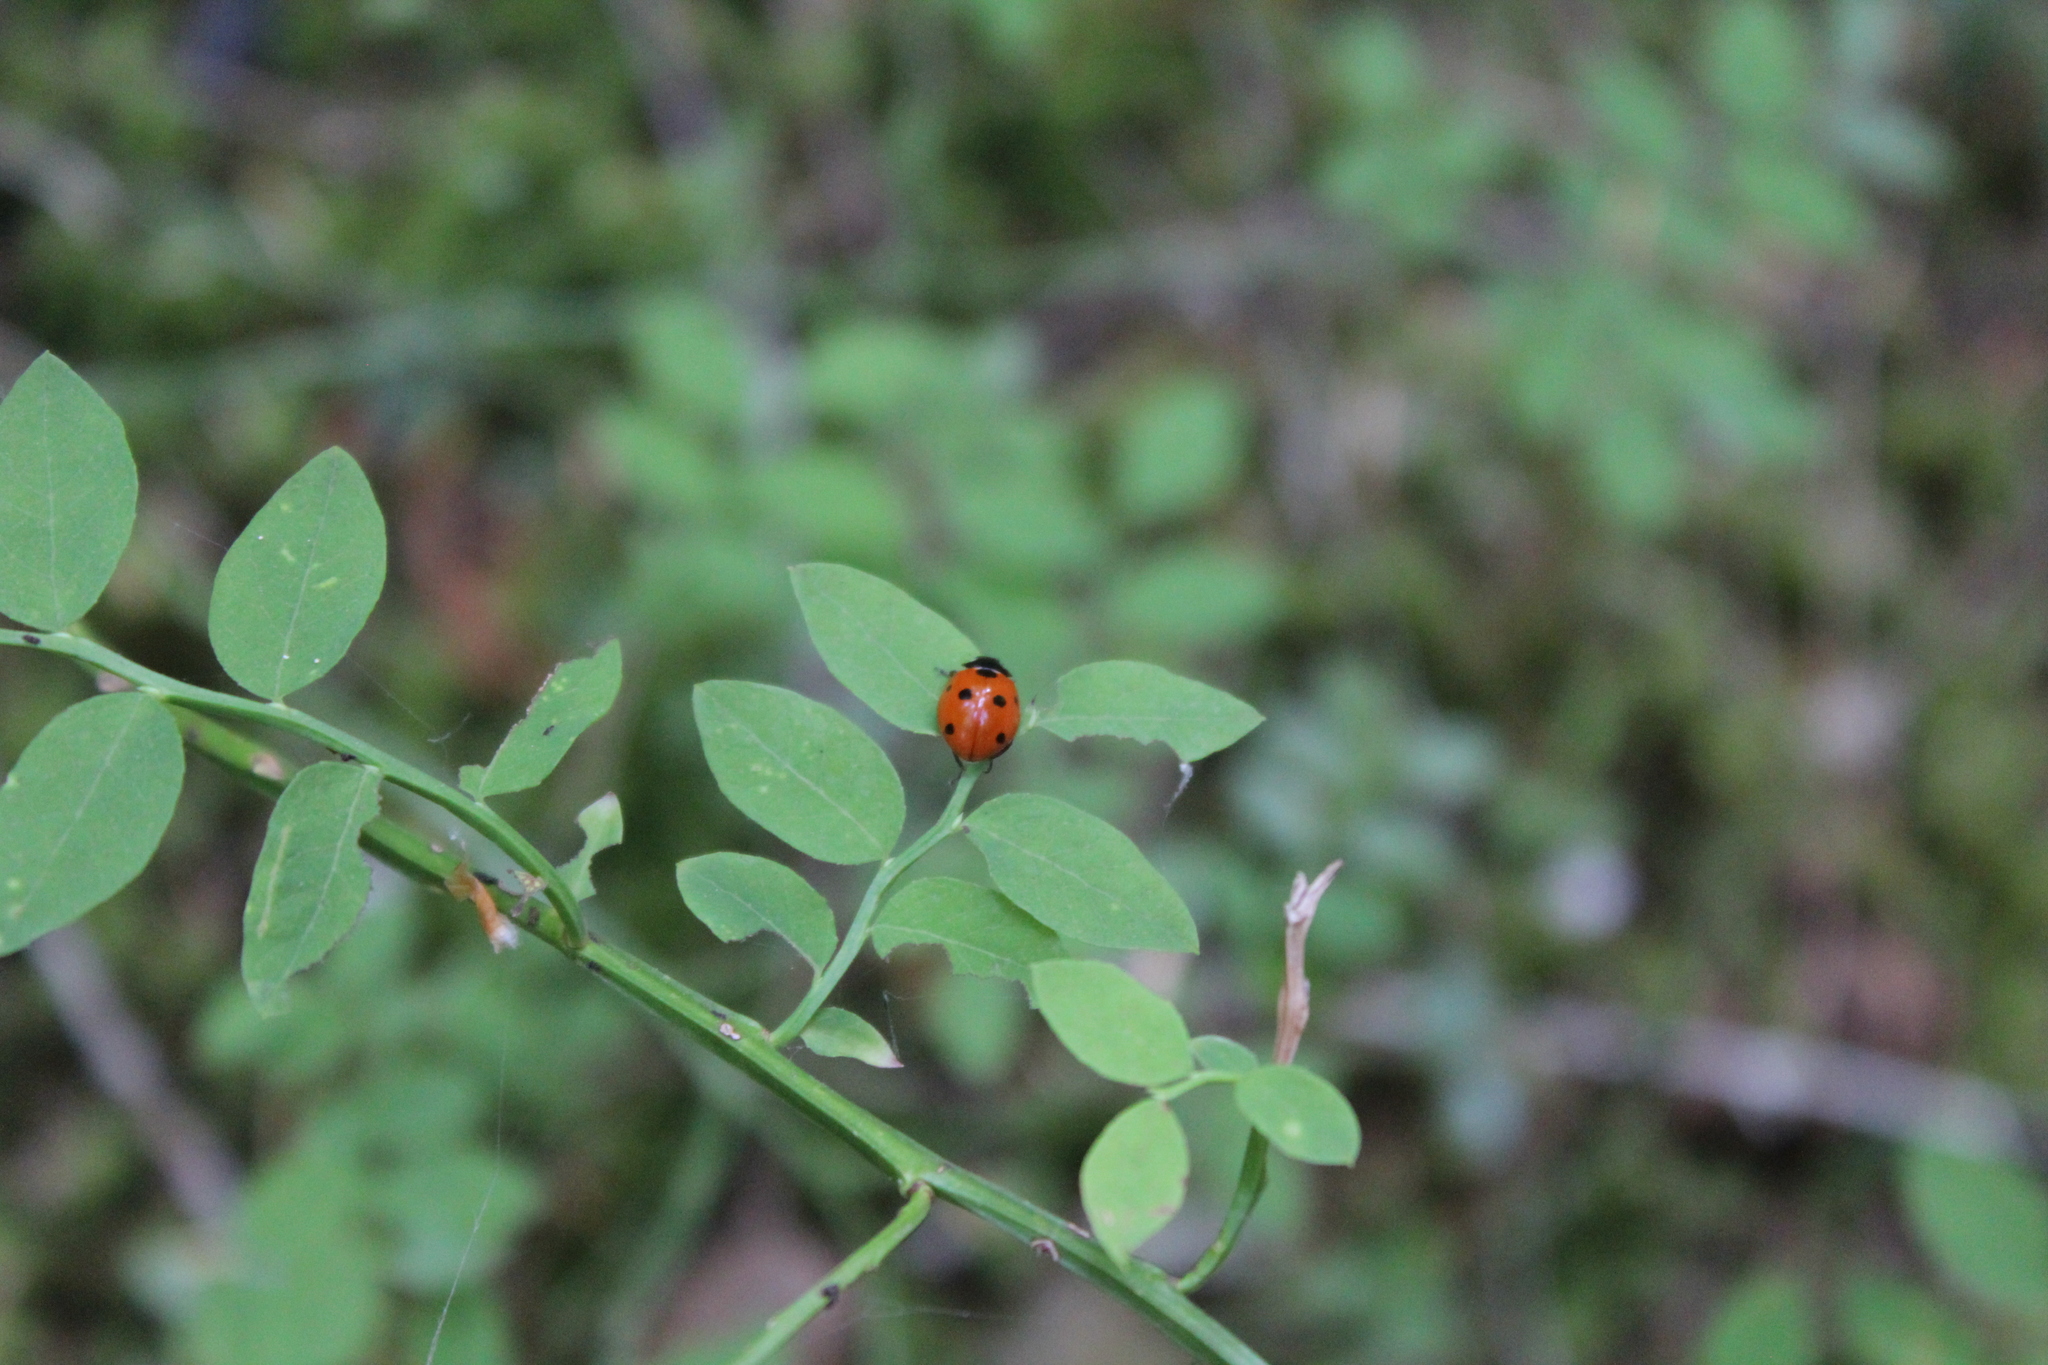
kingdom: Animalia
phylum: Arthropoda
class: Insecta
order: Coleoptera
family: Coccinellidae
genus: Coccinella
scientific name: Coccinella septempunctata
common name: Sevenspotted lady beetle
